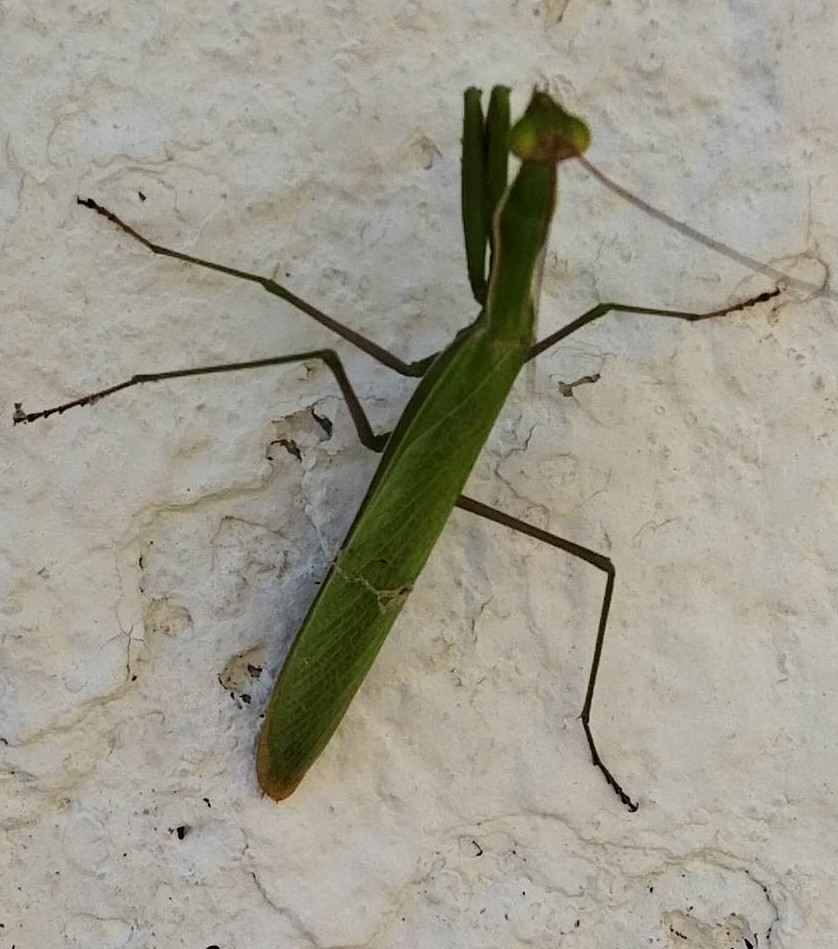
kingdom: Animalia
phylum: Arthropoda
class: Insecta
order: Mantodea
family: Mantidae
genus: Mantis
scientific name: Mantis religiosa
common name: Praying mantis
